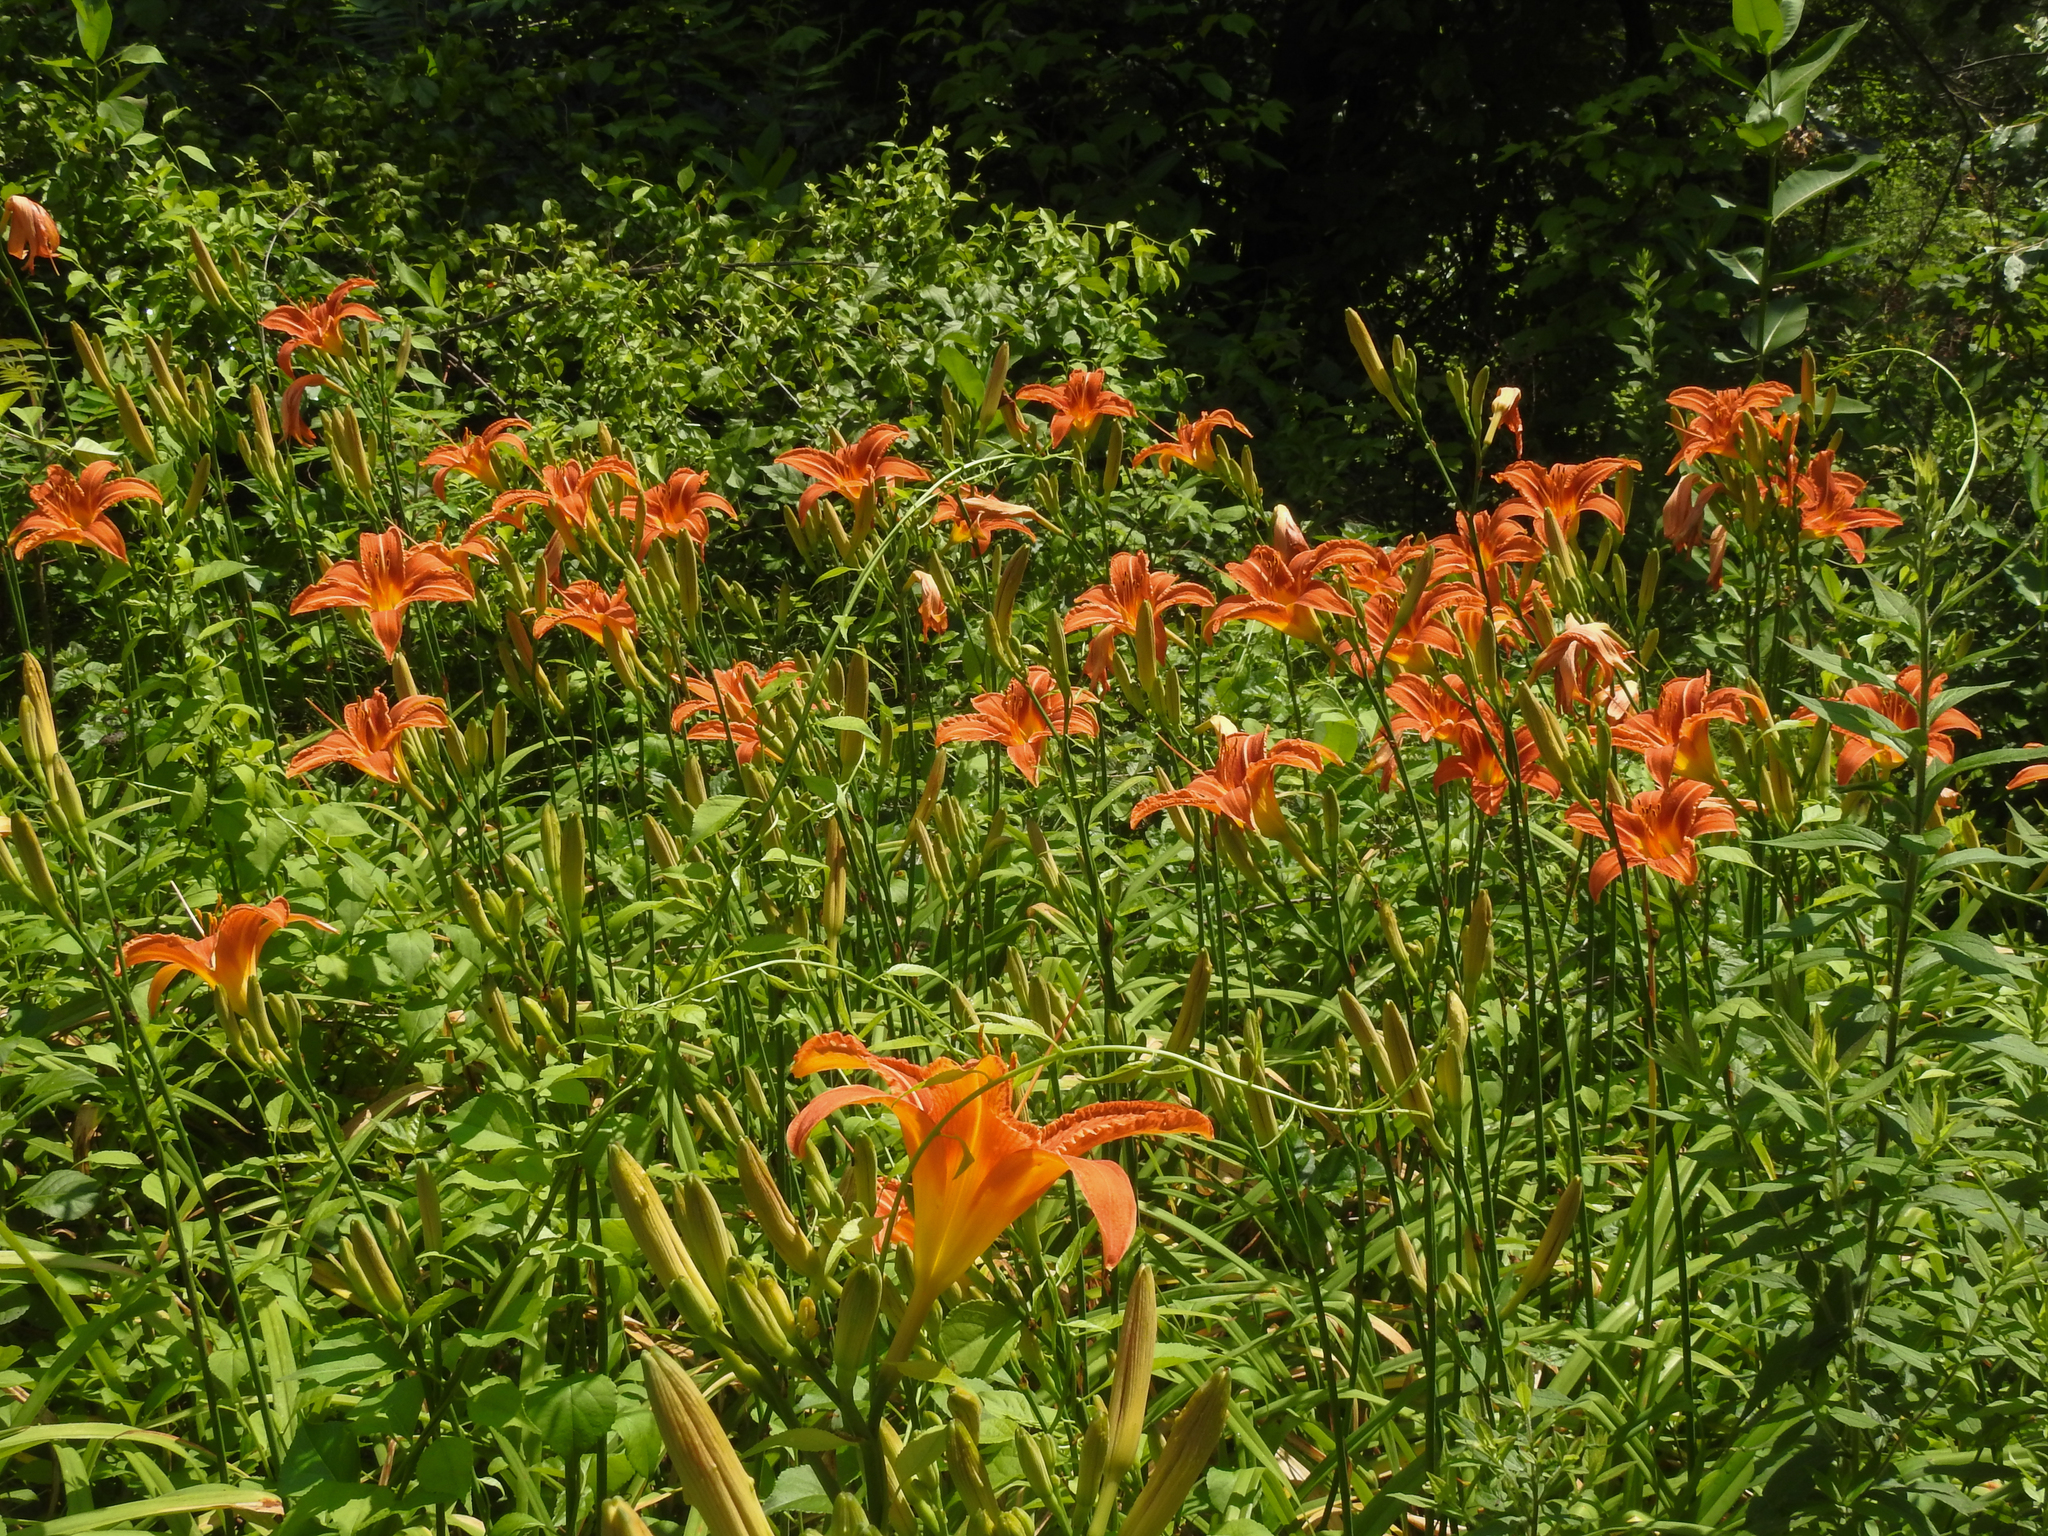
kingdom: Plantae
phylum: Tracheophyta
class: Liliopsida
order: Asparagales
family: Asphodelaceae
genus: Hemerocallis
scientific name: Hemerocallis fulva
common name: Orange day-lily
